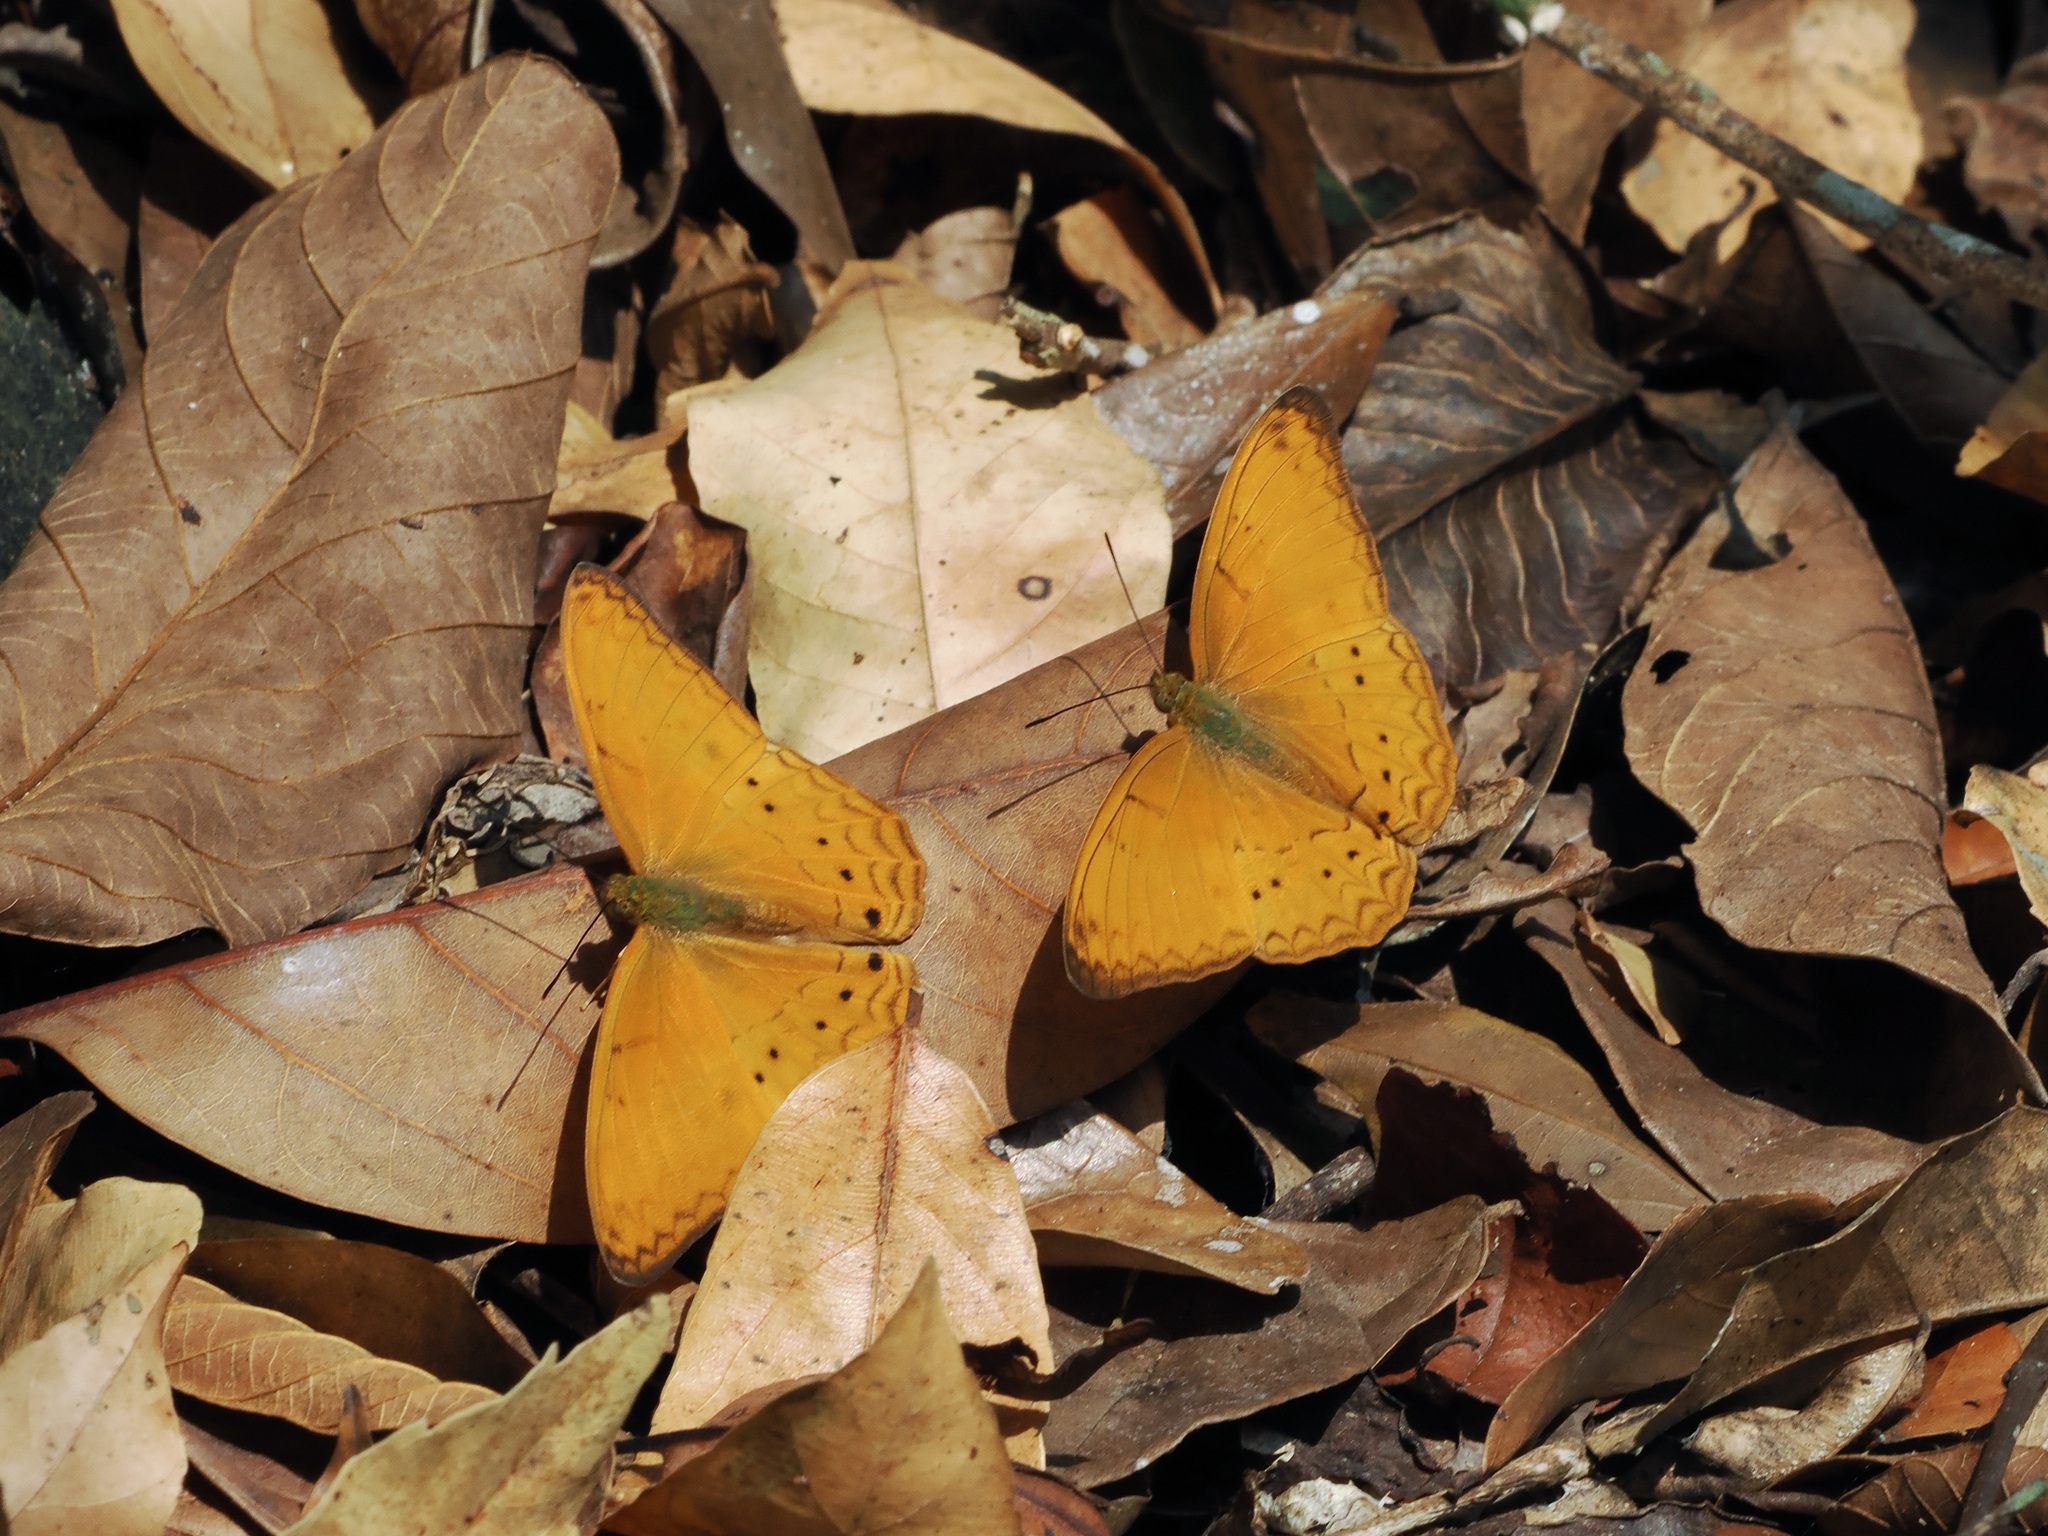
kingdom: Animalia
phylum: Arthropoda
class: Insecta
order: Lepidoptera
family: Nymphalidae
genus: Cirrochroa
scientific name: Cirrochroa tyche
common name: Common yeoman
